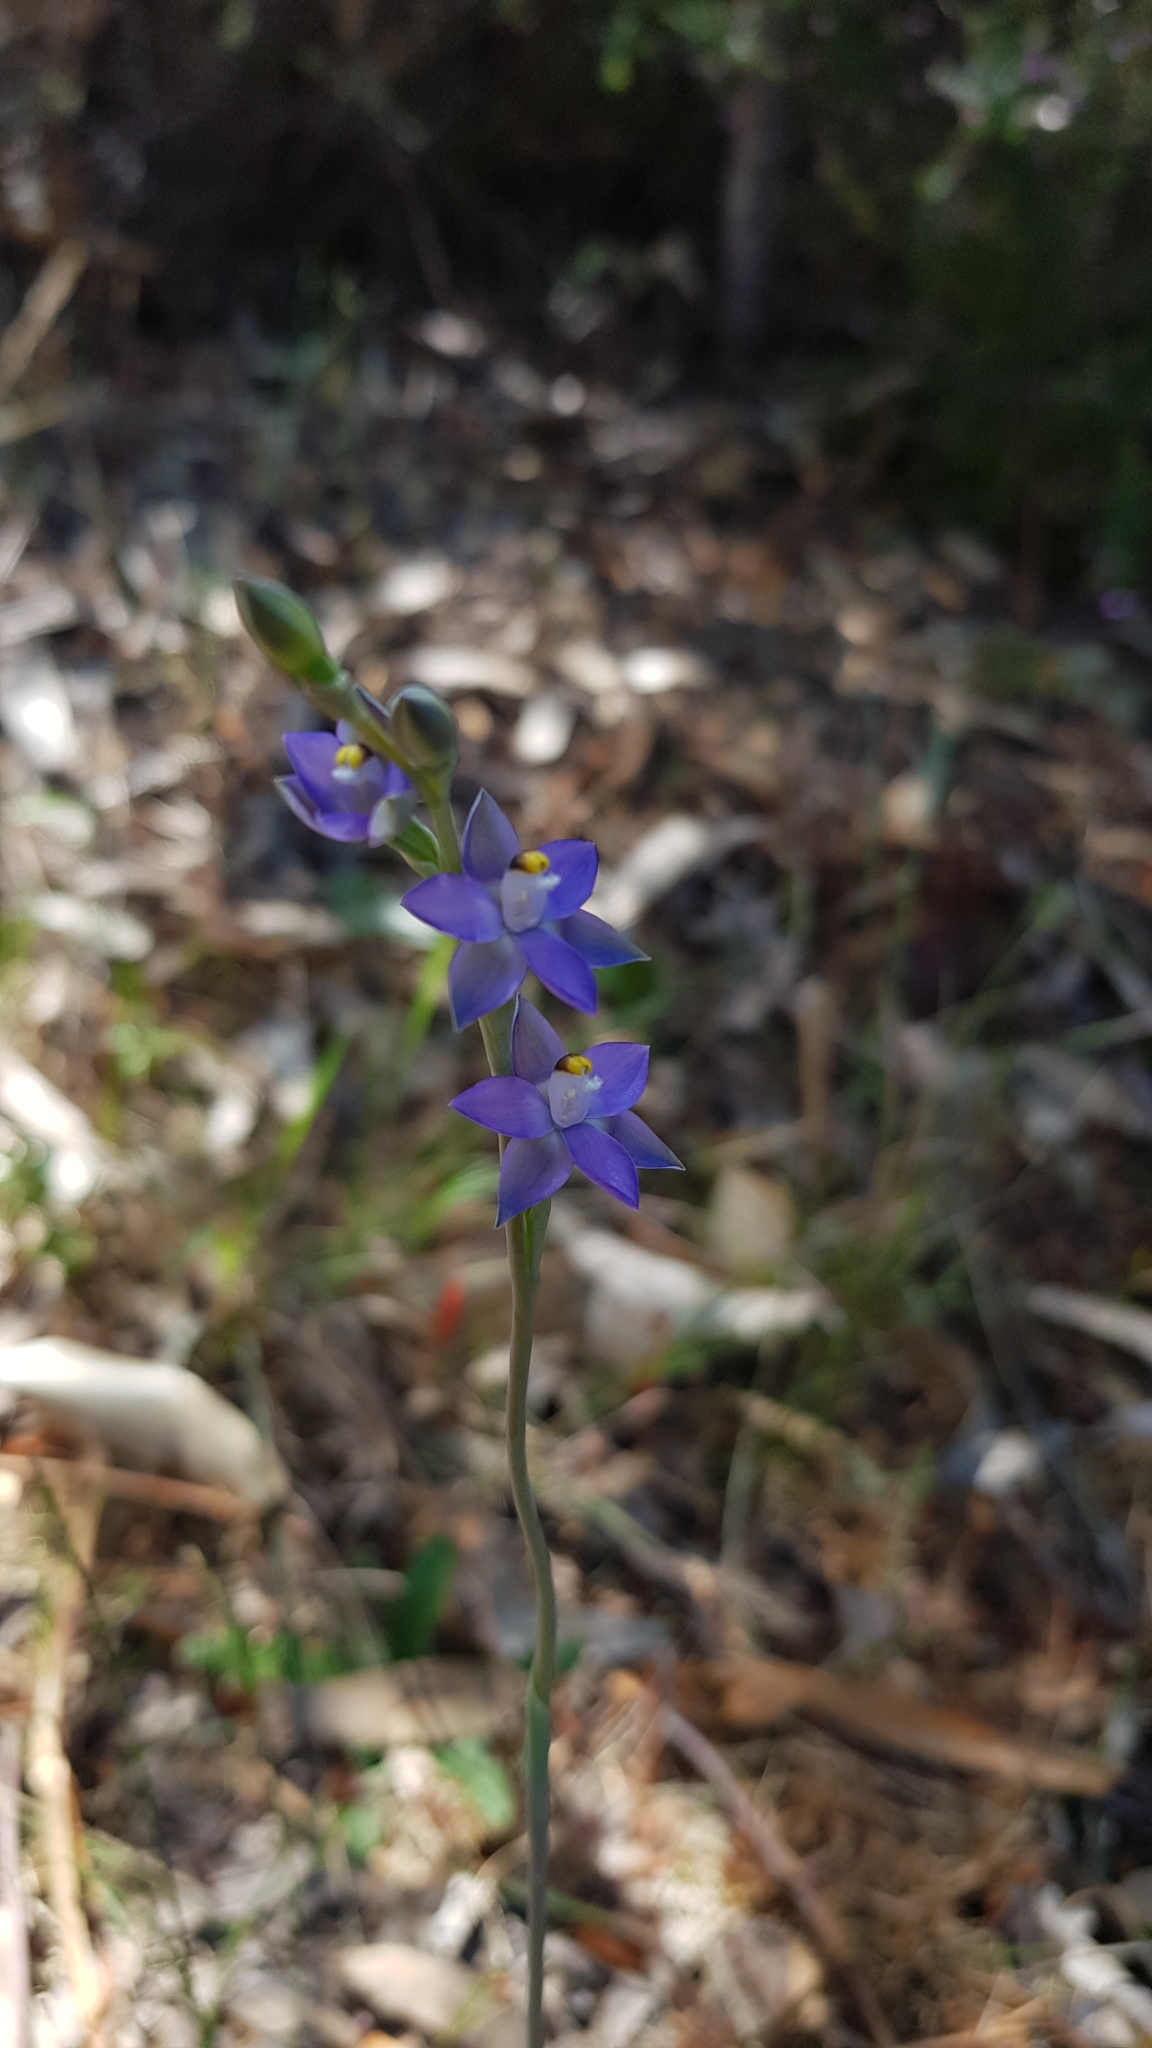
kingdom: Plantae
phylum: Tracheophyta
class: Liliopsida
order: Asparagales
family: Orchidaceae
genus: Thelymitra
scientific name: Thelymitra peniculata
